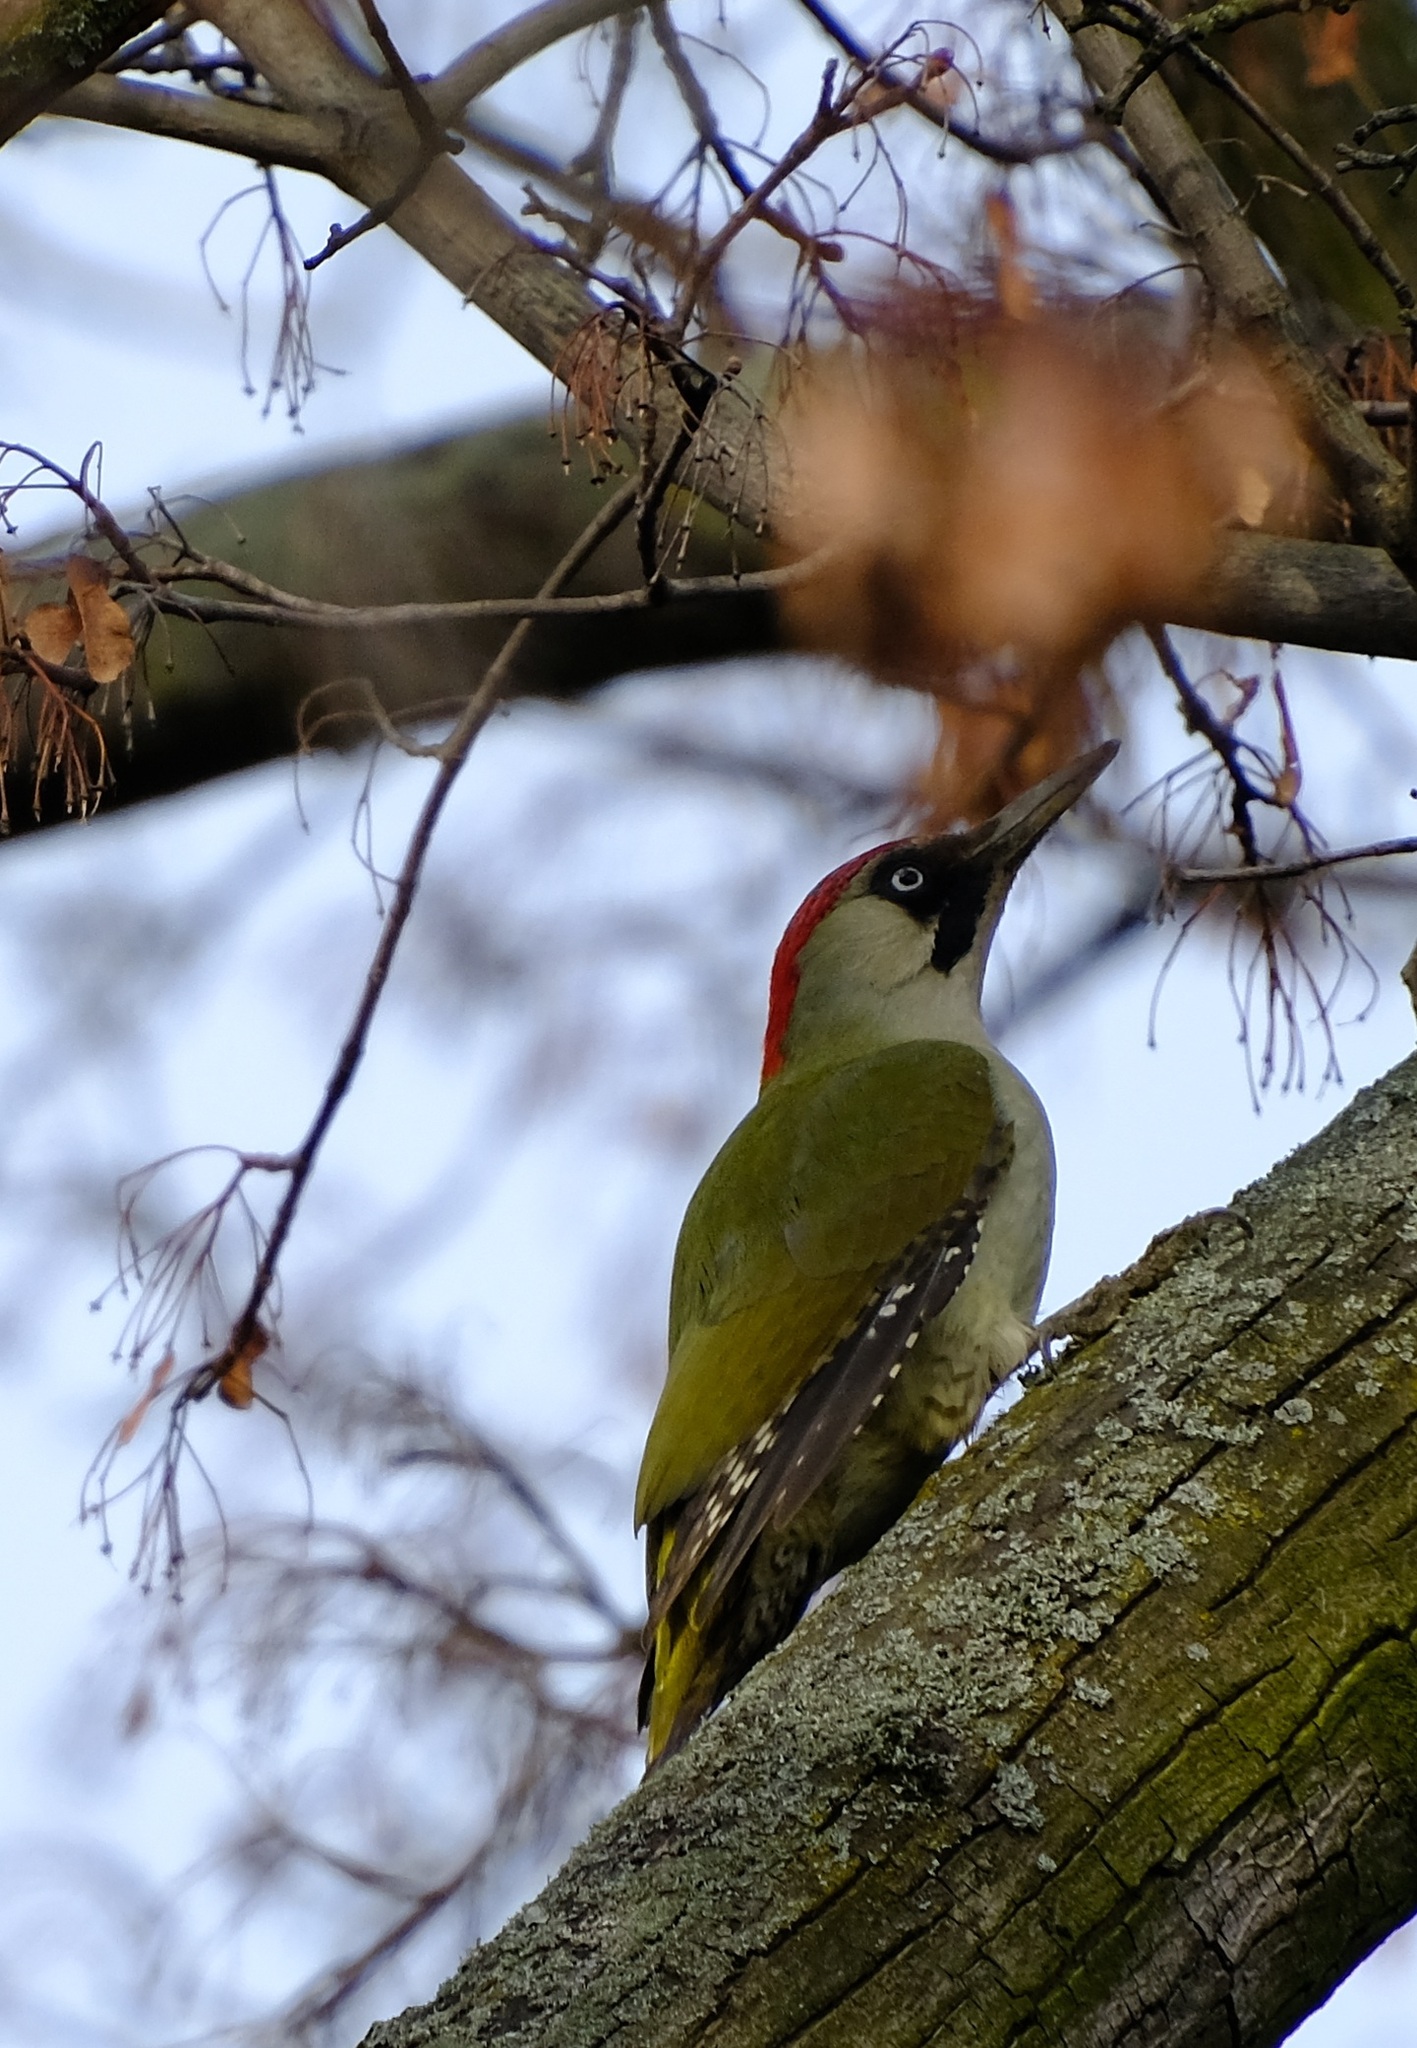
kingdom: Animalia
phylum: Chordata
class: Aves
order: Piciformes
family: Picidae
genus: Picus
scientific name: Picus viridis
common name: European green woodpecker
